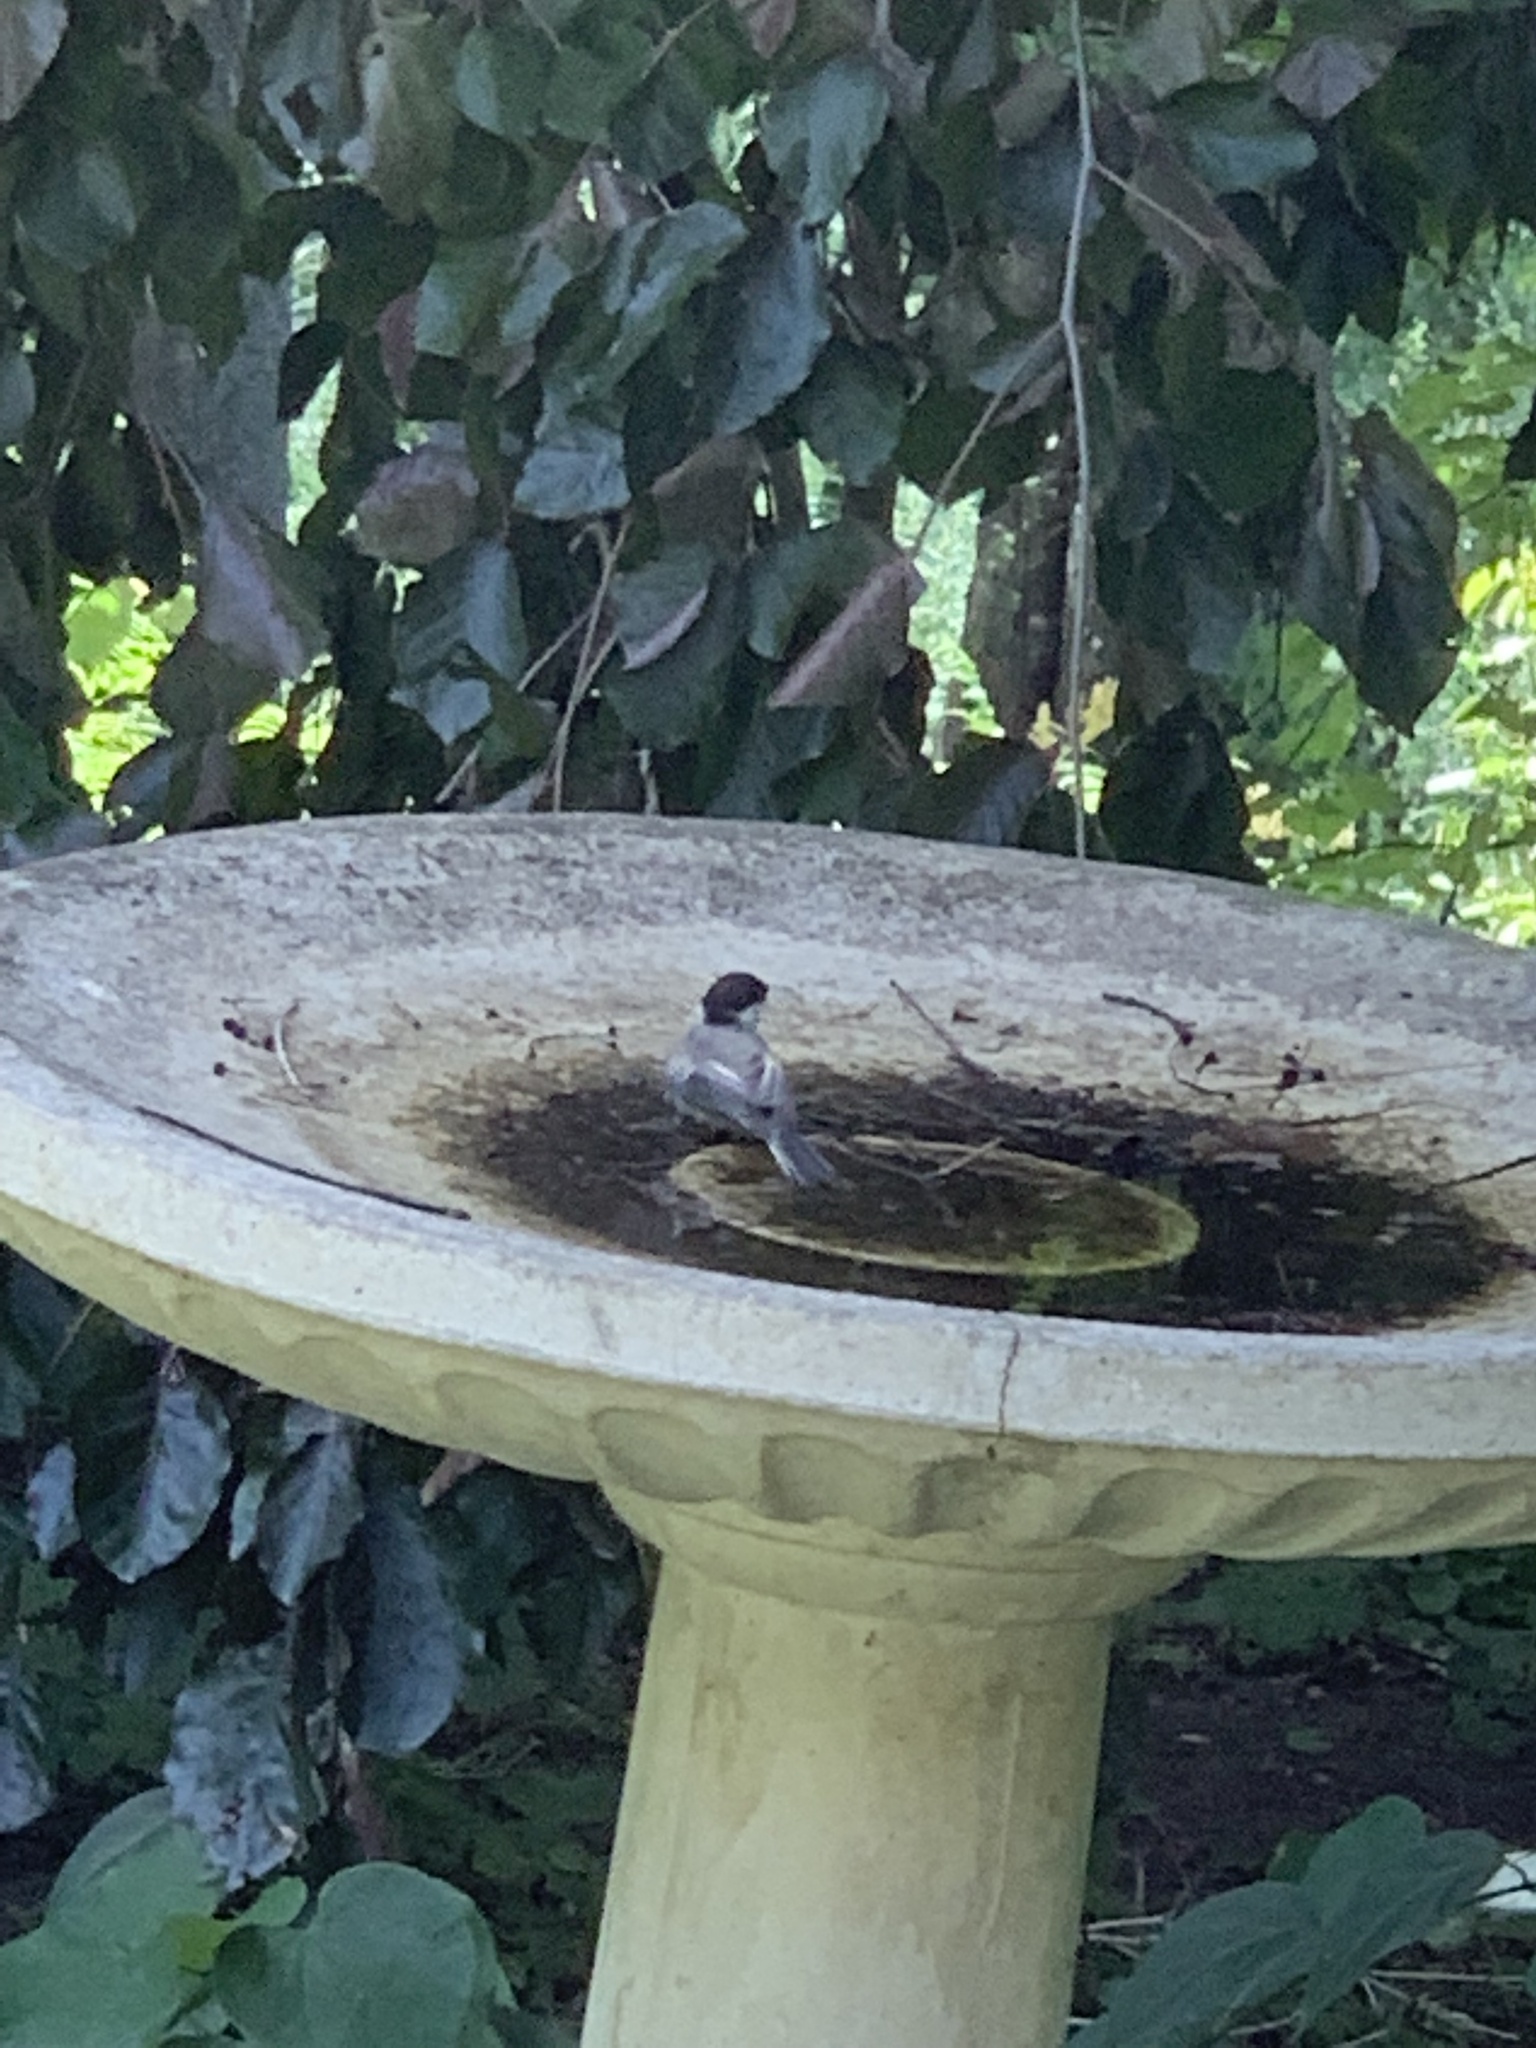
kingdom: Animalia
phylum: Chordata
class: Aves
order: Passeriformes
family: Paridae
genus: Poecile
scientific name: Poecile atricapillus
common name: Black-capped chickadee
